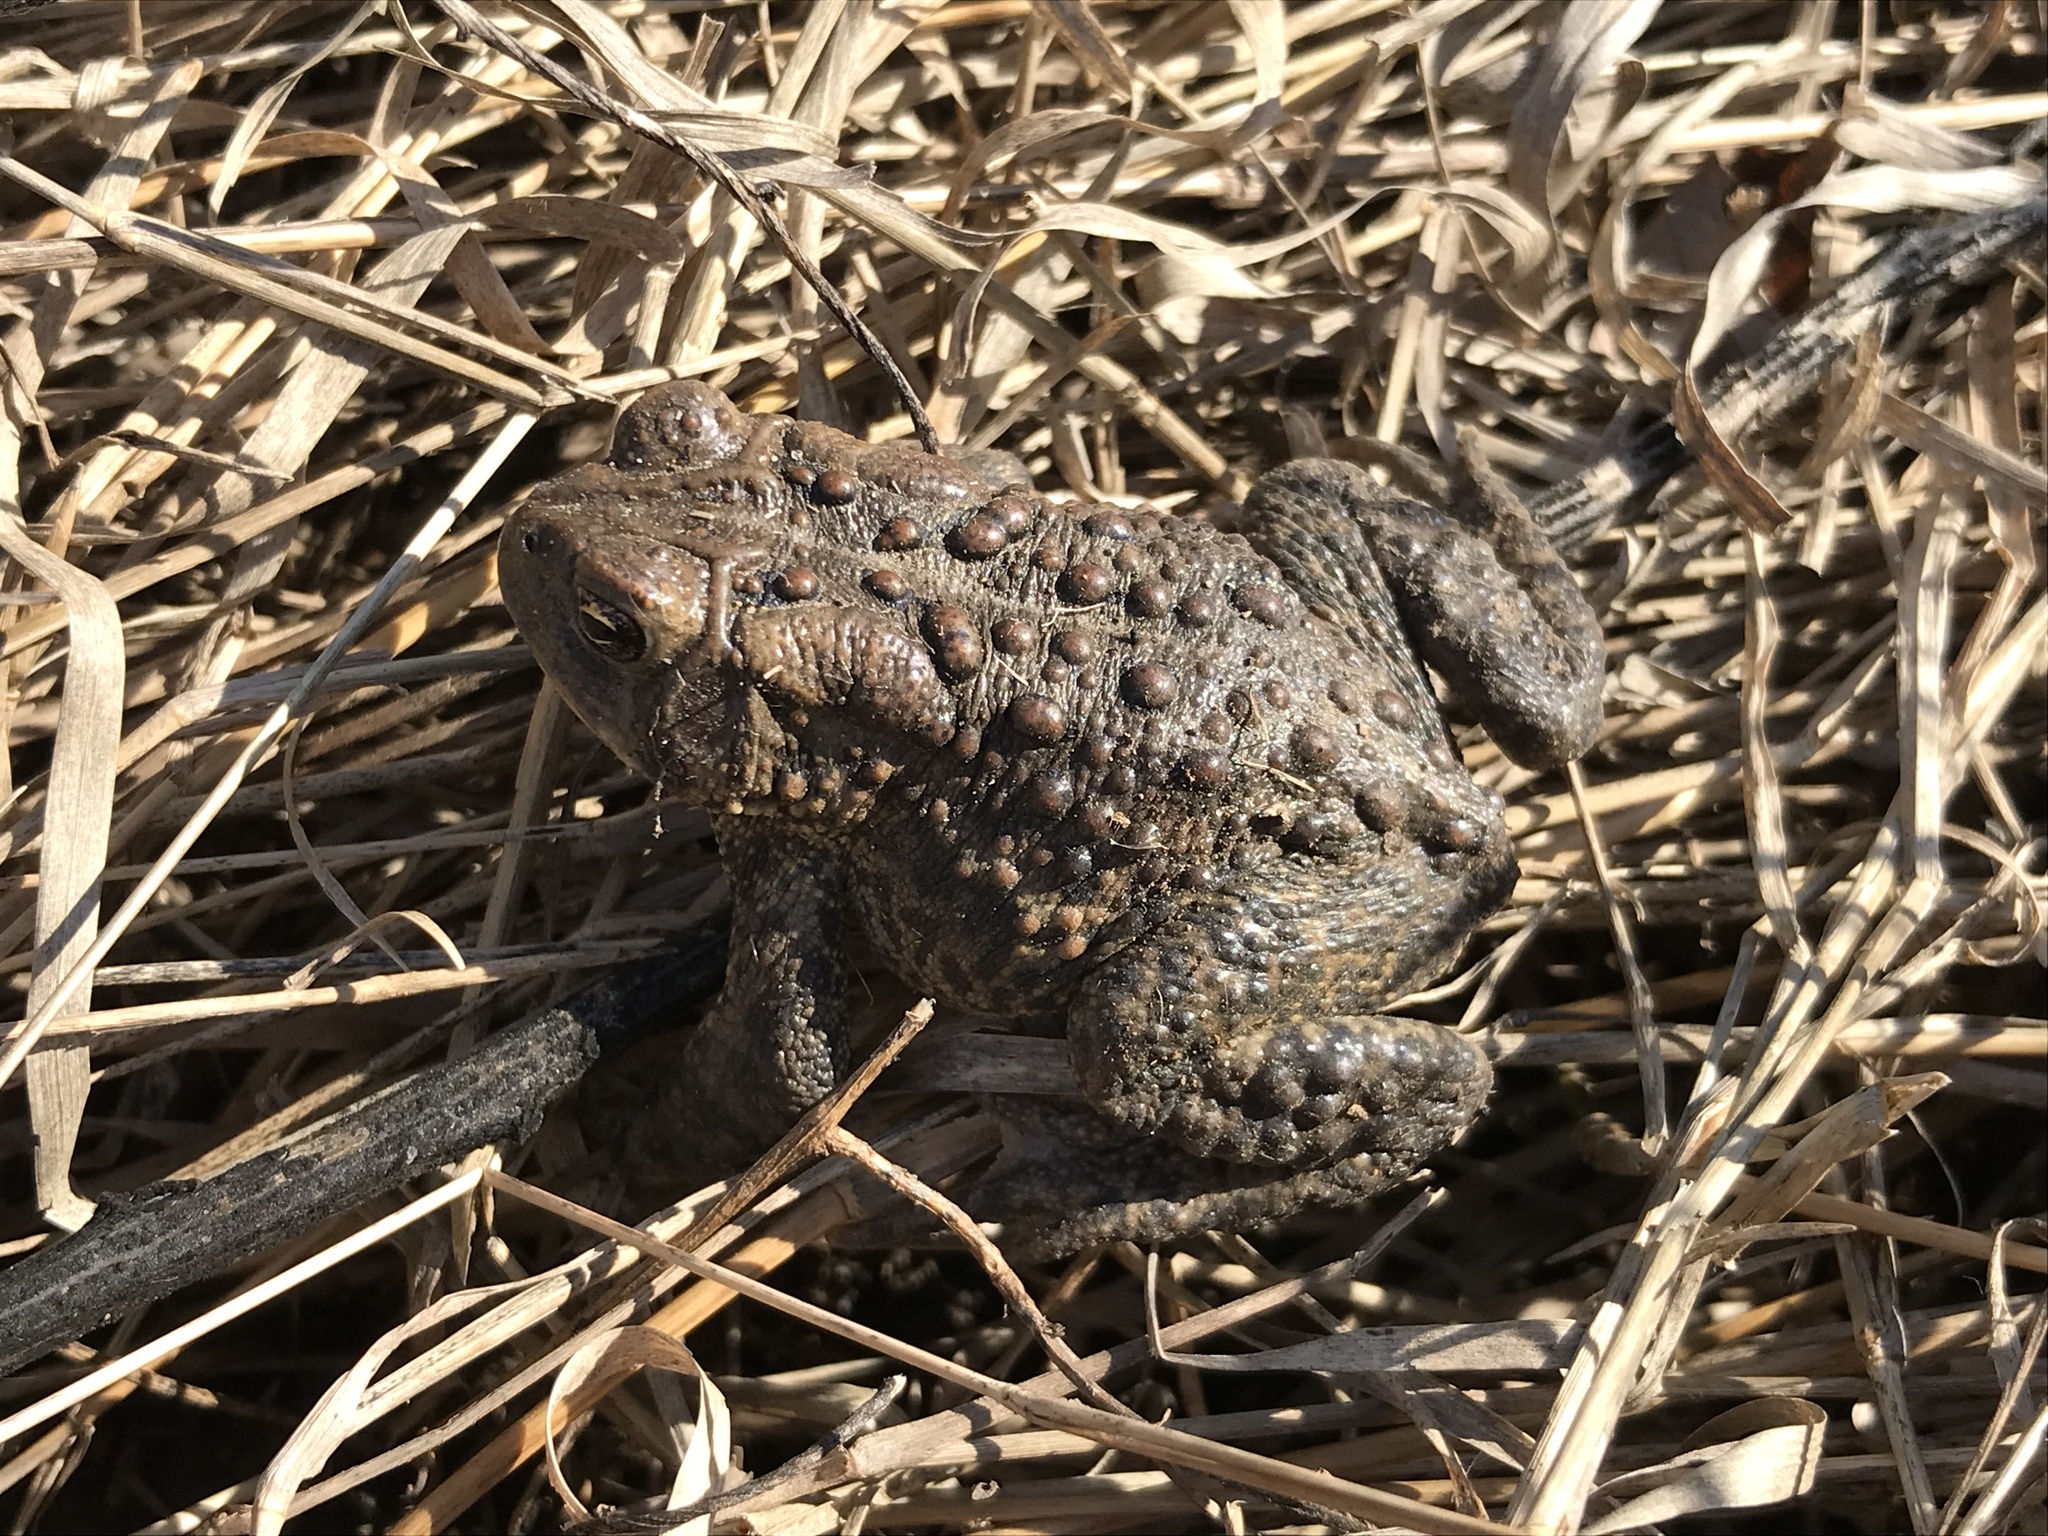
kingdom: Animalia
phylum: Chordata
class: Amphibia
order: Anura
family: Bufonidae
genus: Anaxyrus
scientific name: Anaxyrus americanus
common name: American toad
